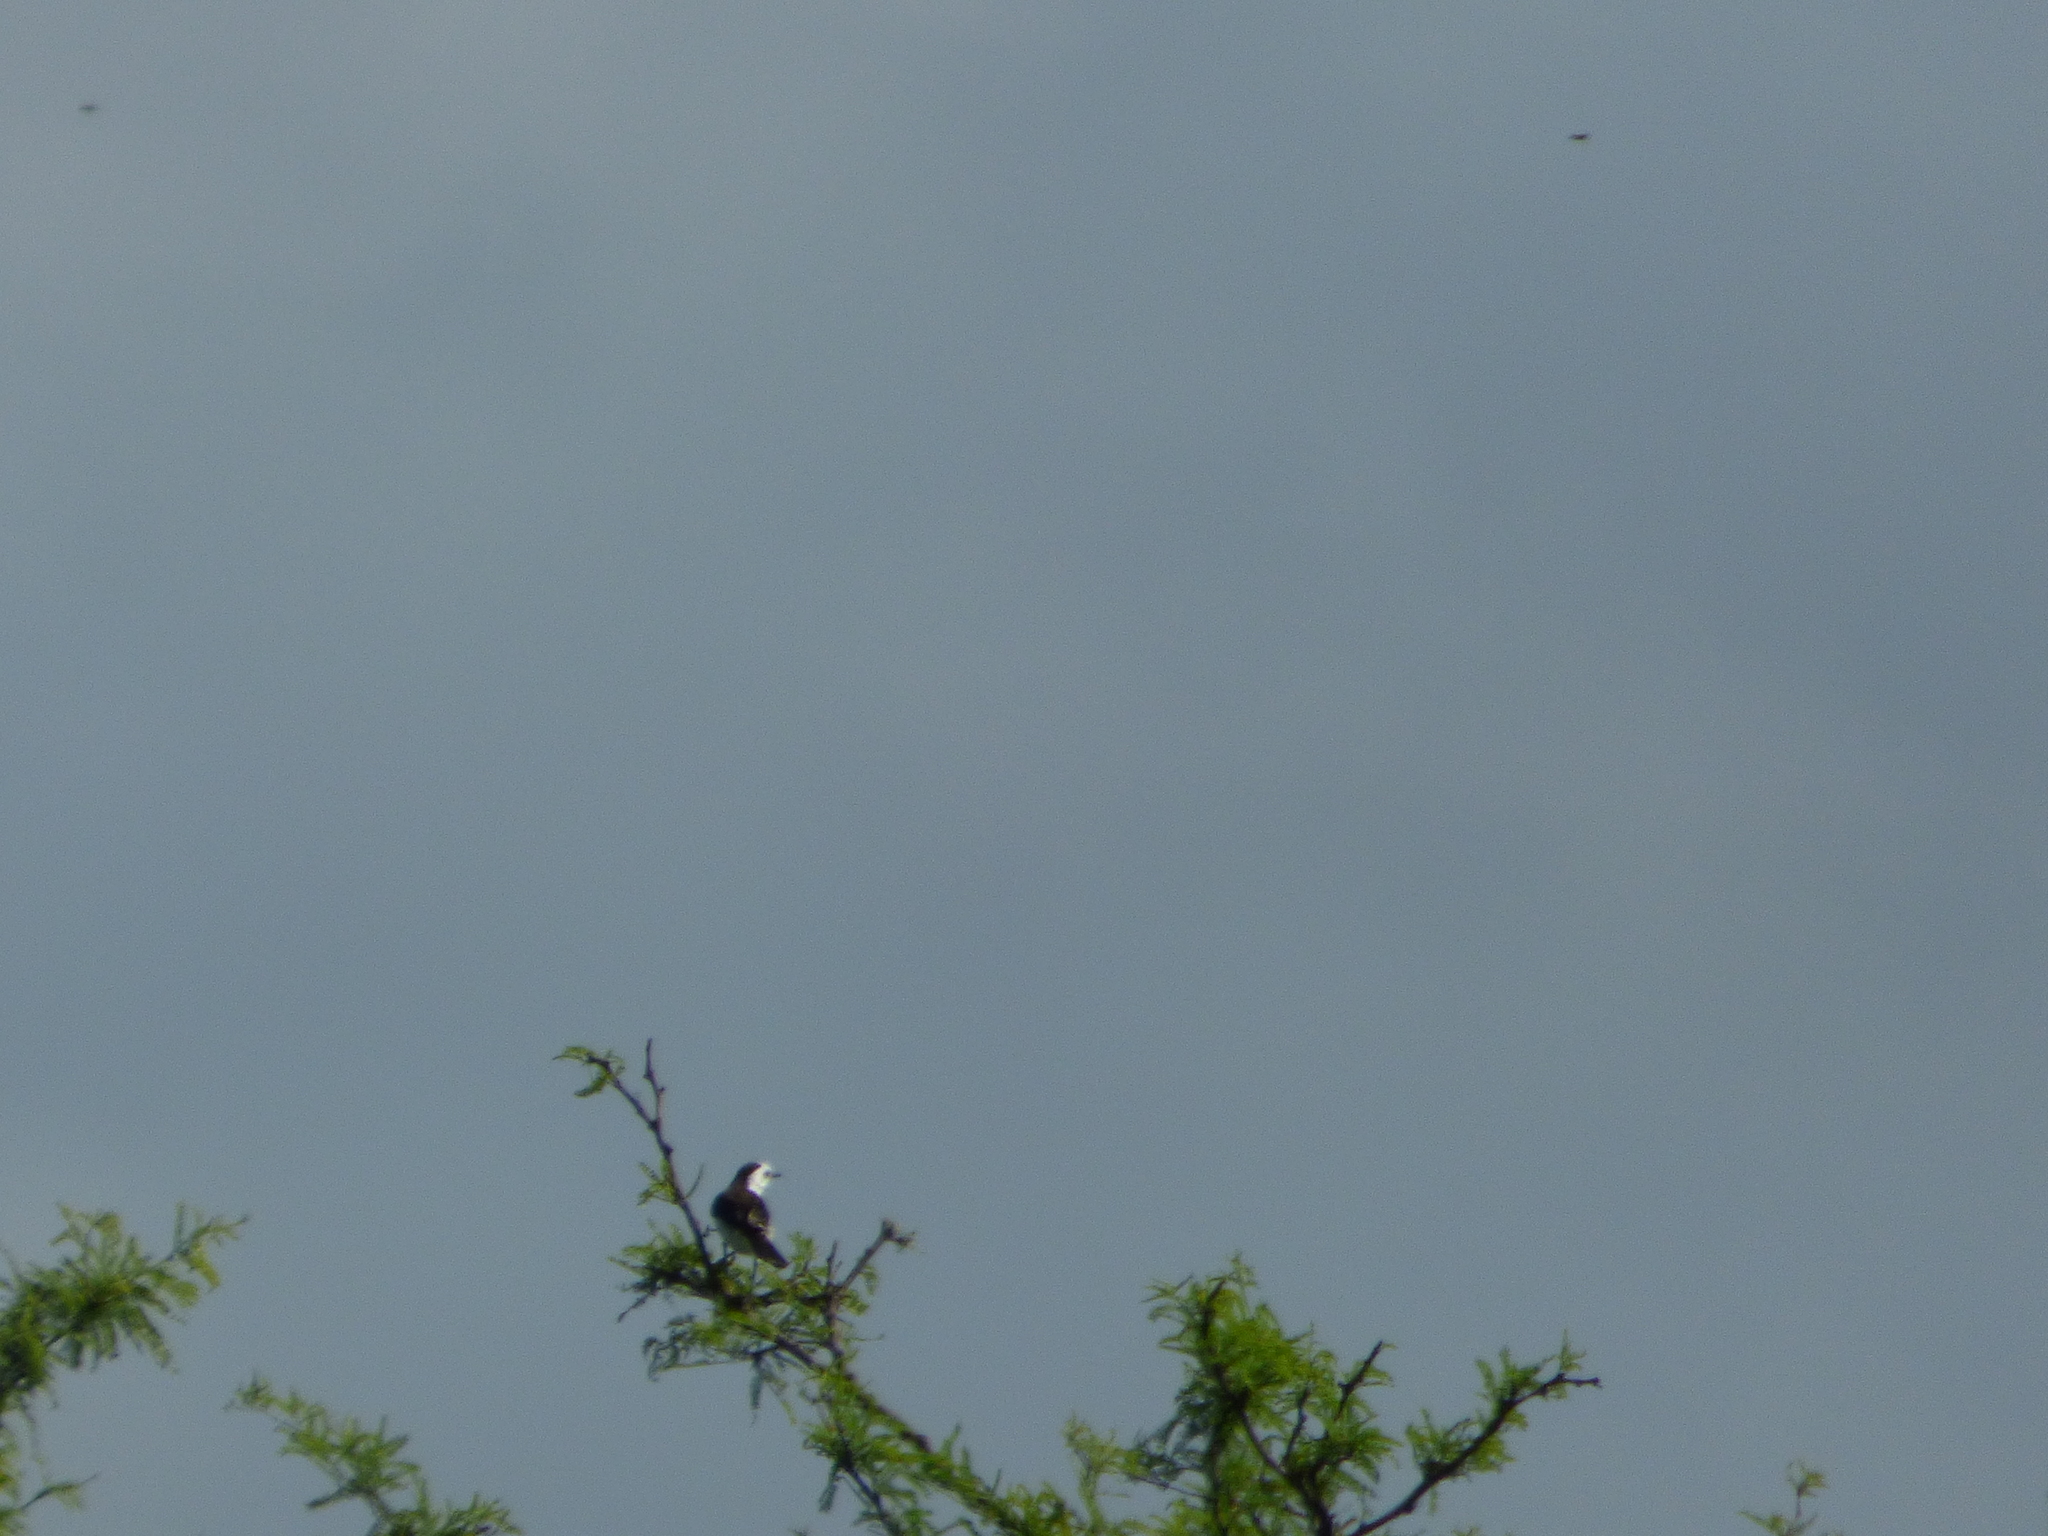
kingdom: Animalia
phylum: Chordata
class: Aves
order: Passeriformes
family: Tyrannidae
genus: Fluvicola
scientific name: Fluvicola pica
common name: Pied water-tyrant
